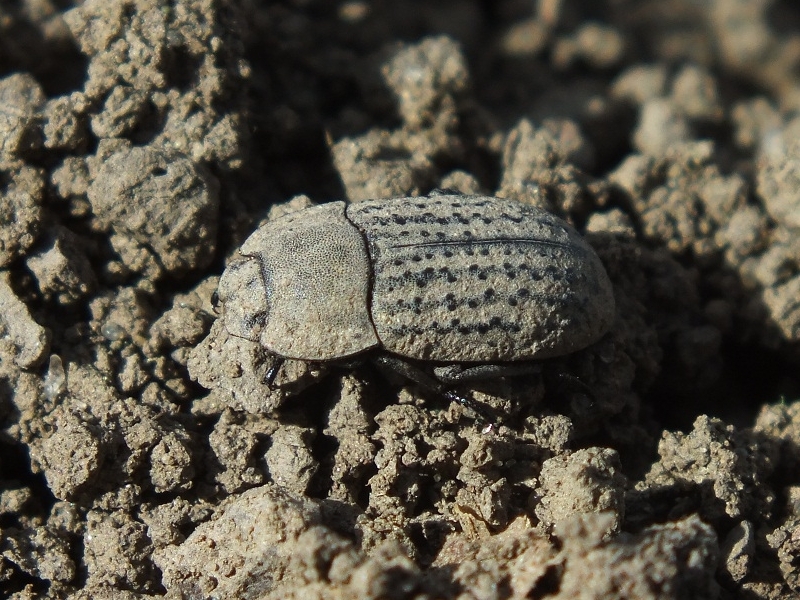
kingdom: Animalia
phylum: Arthropoda
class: Insecta
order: Coleoptera
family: Tenebrionidae
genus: Opatrum
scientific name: Opatrum sabulosum
